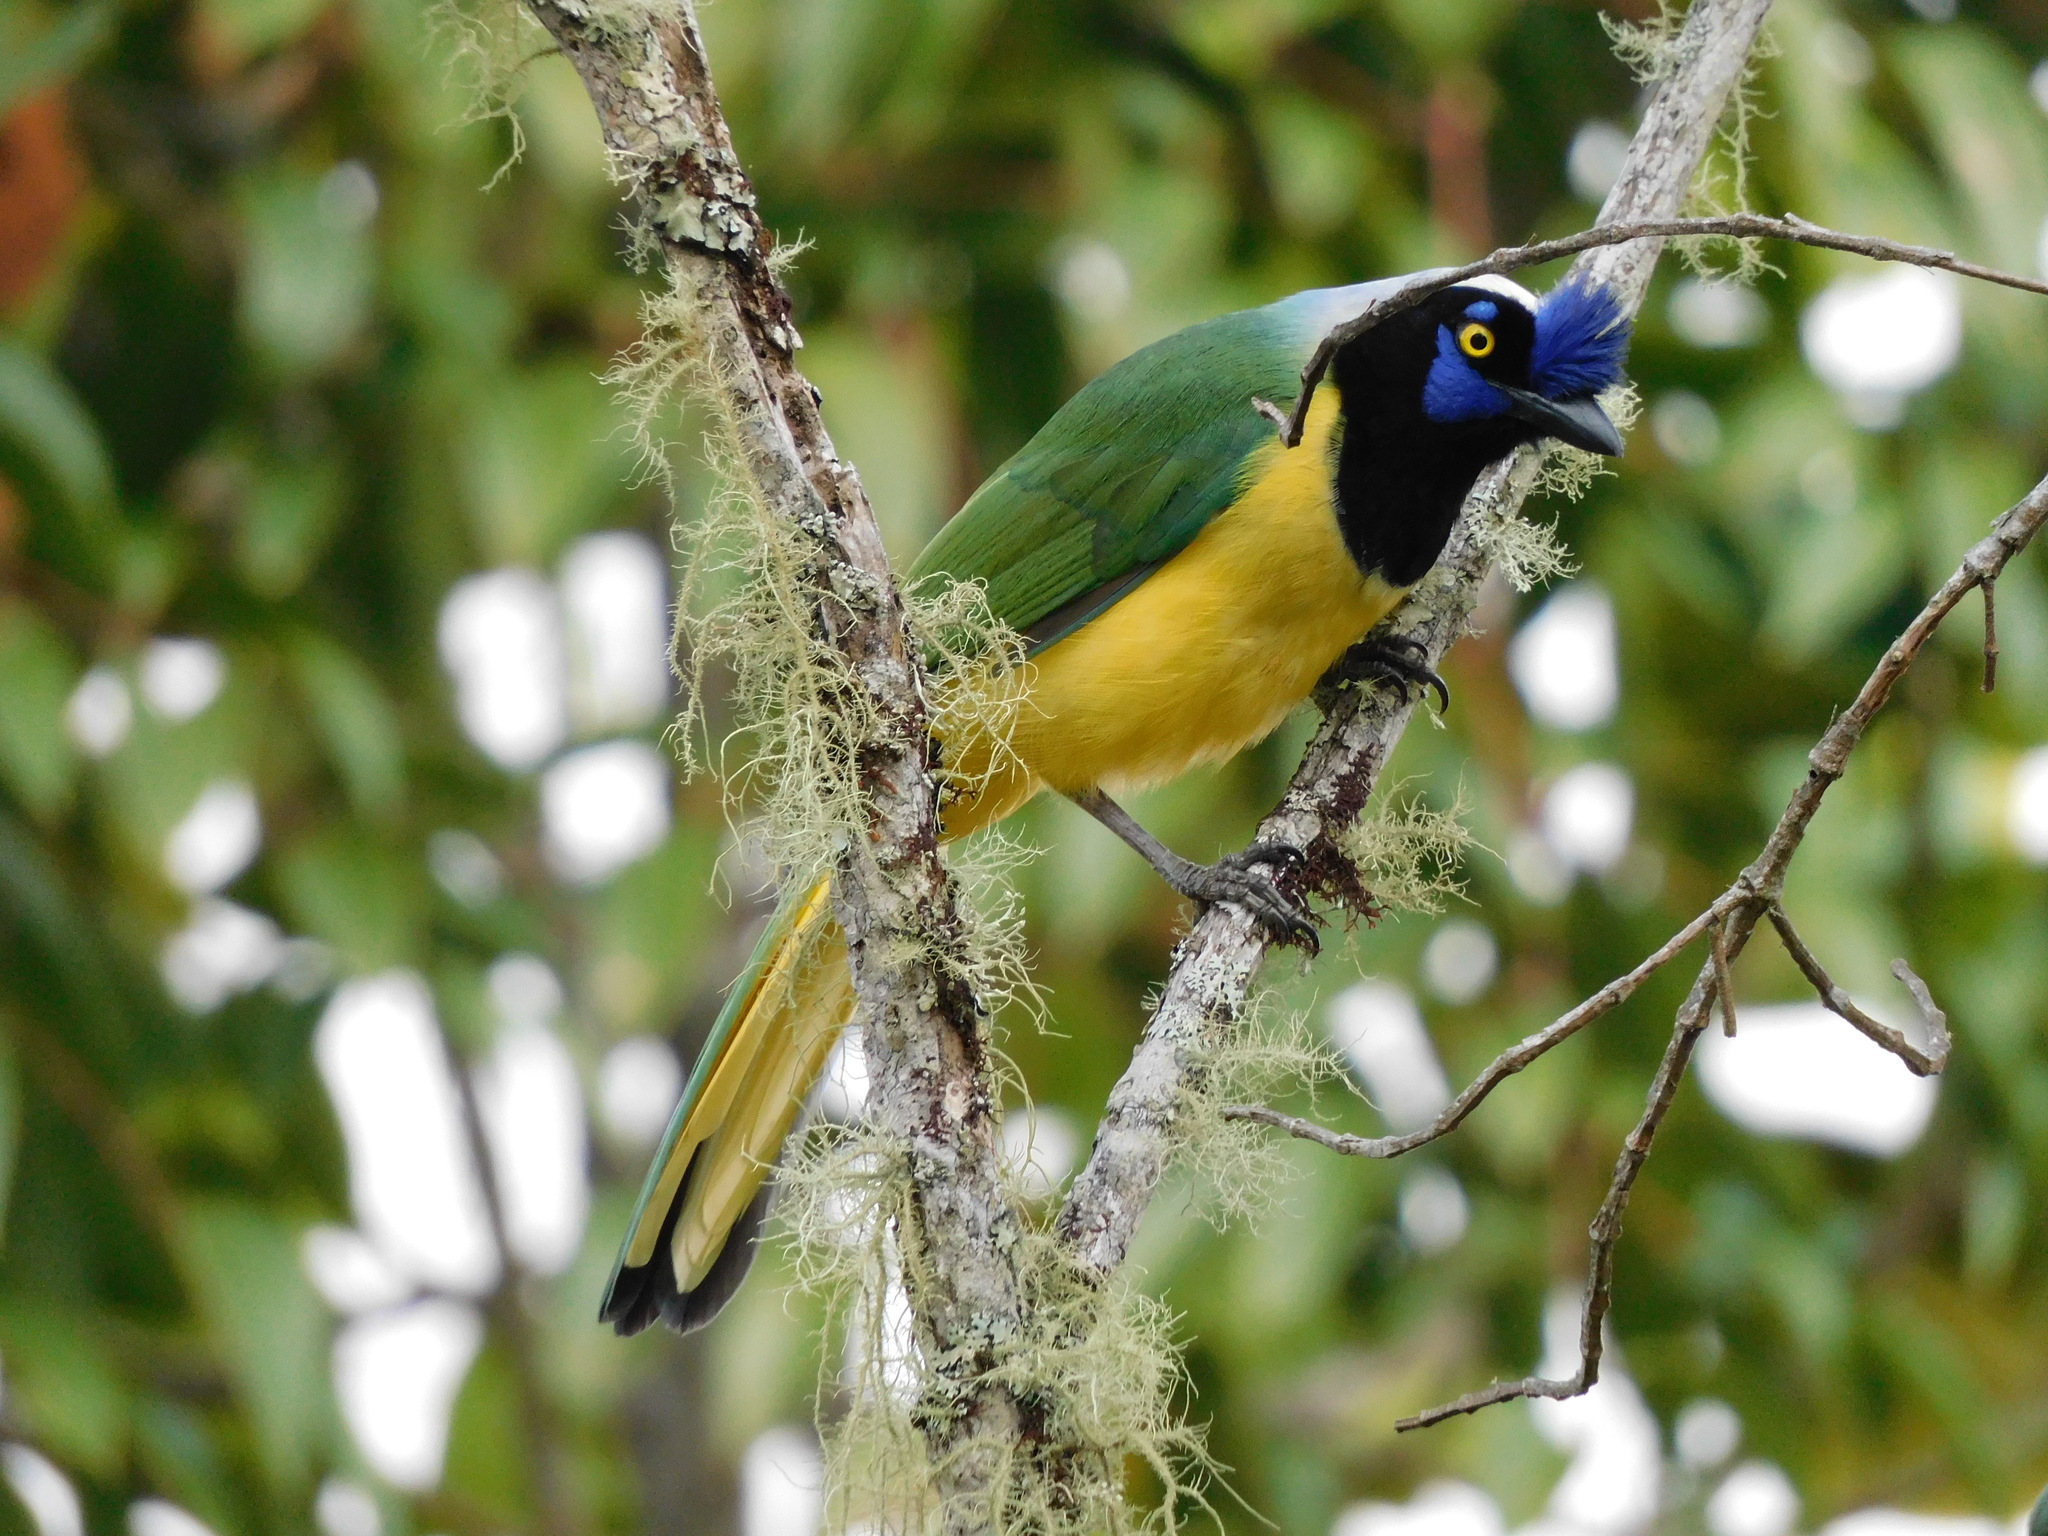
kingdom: Animalia
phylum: Chordata
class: Aves
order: Passeriformes
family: Corvidae
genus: Cyanocorax
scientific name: Cyanocorax yncas
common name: Green jay
